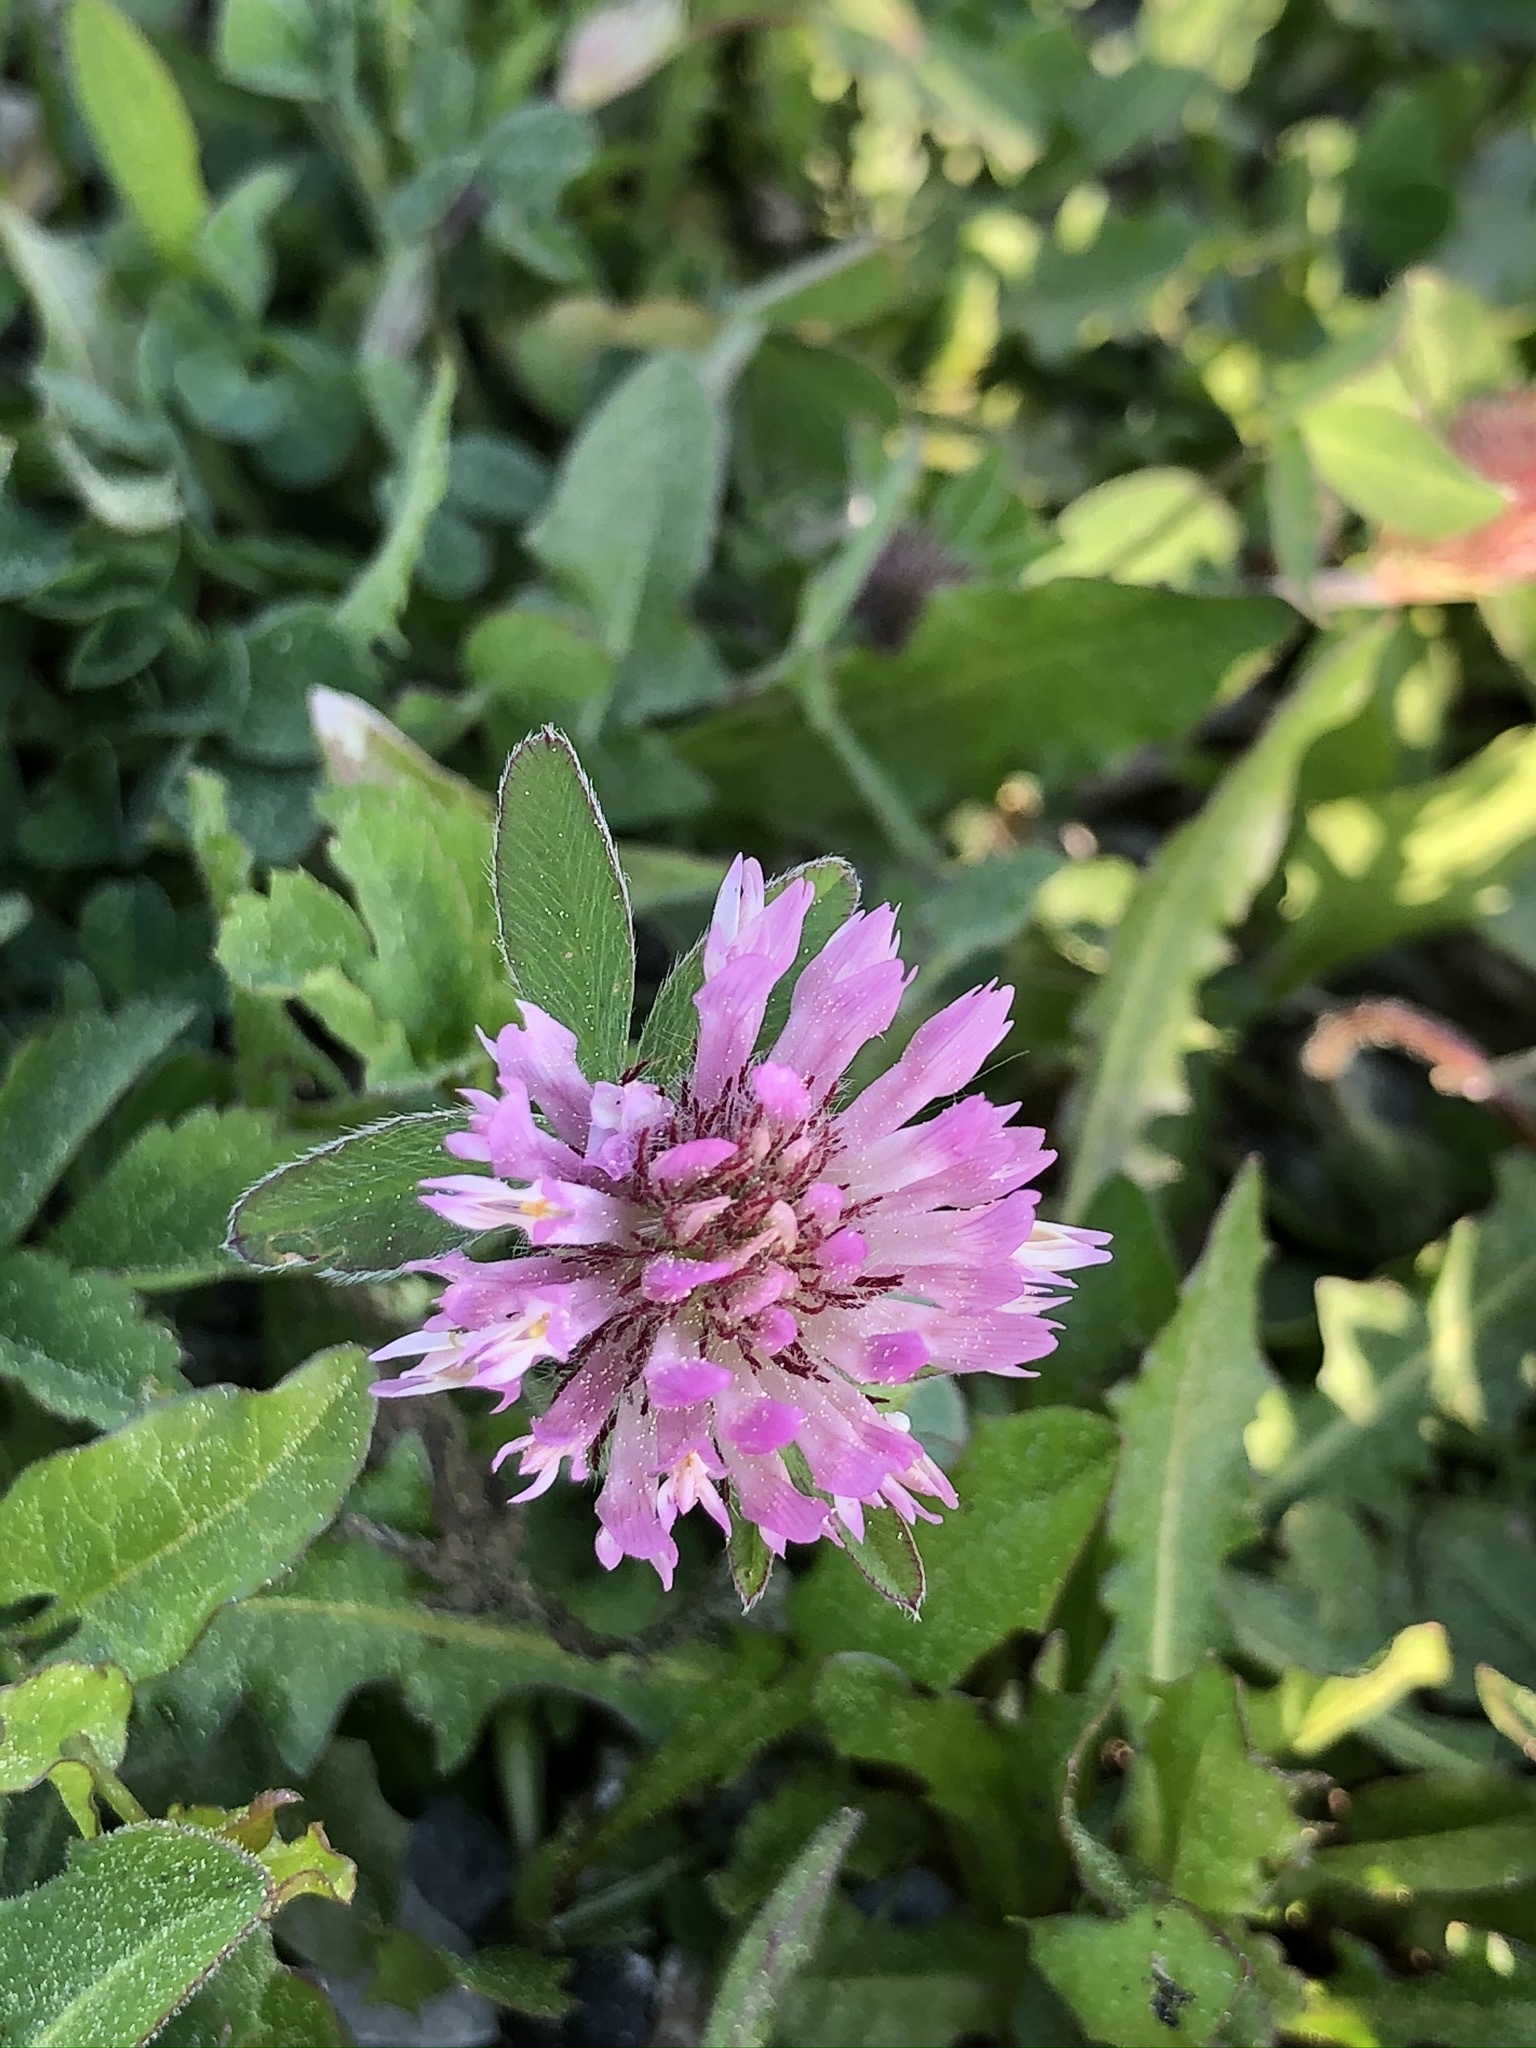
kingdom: Plantae
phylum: Tracheophyta
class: Magnoliopsida
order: Fabales
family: Fabaceae
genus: Trifolium
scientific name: Trifolium pratense
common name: Red clover
